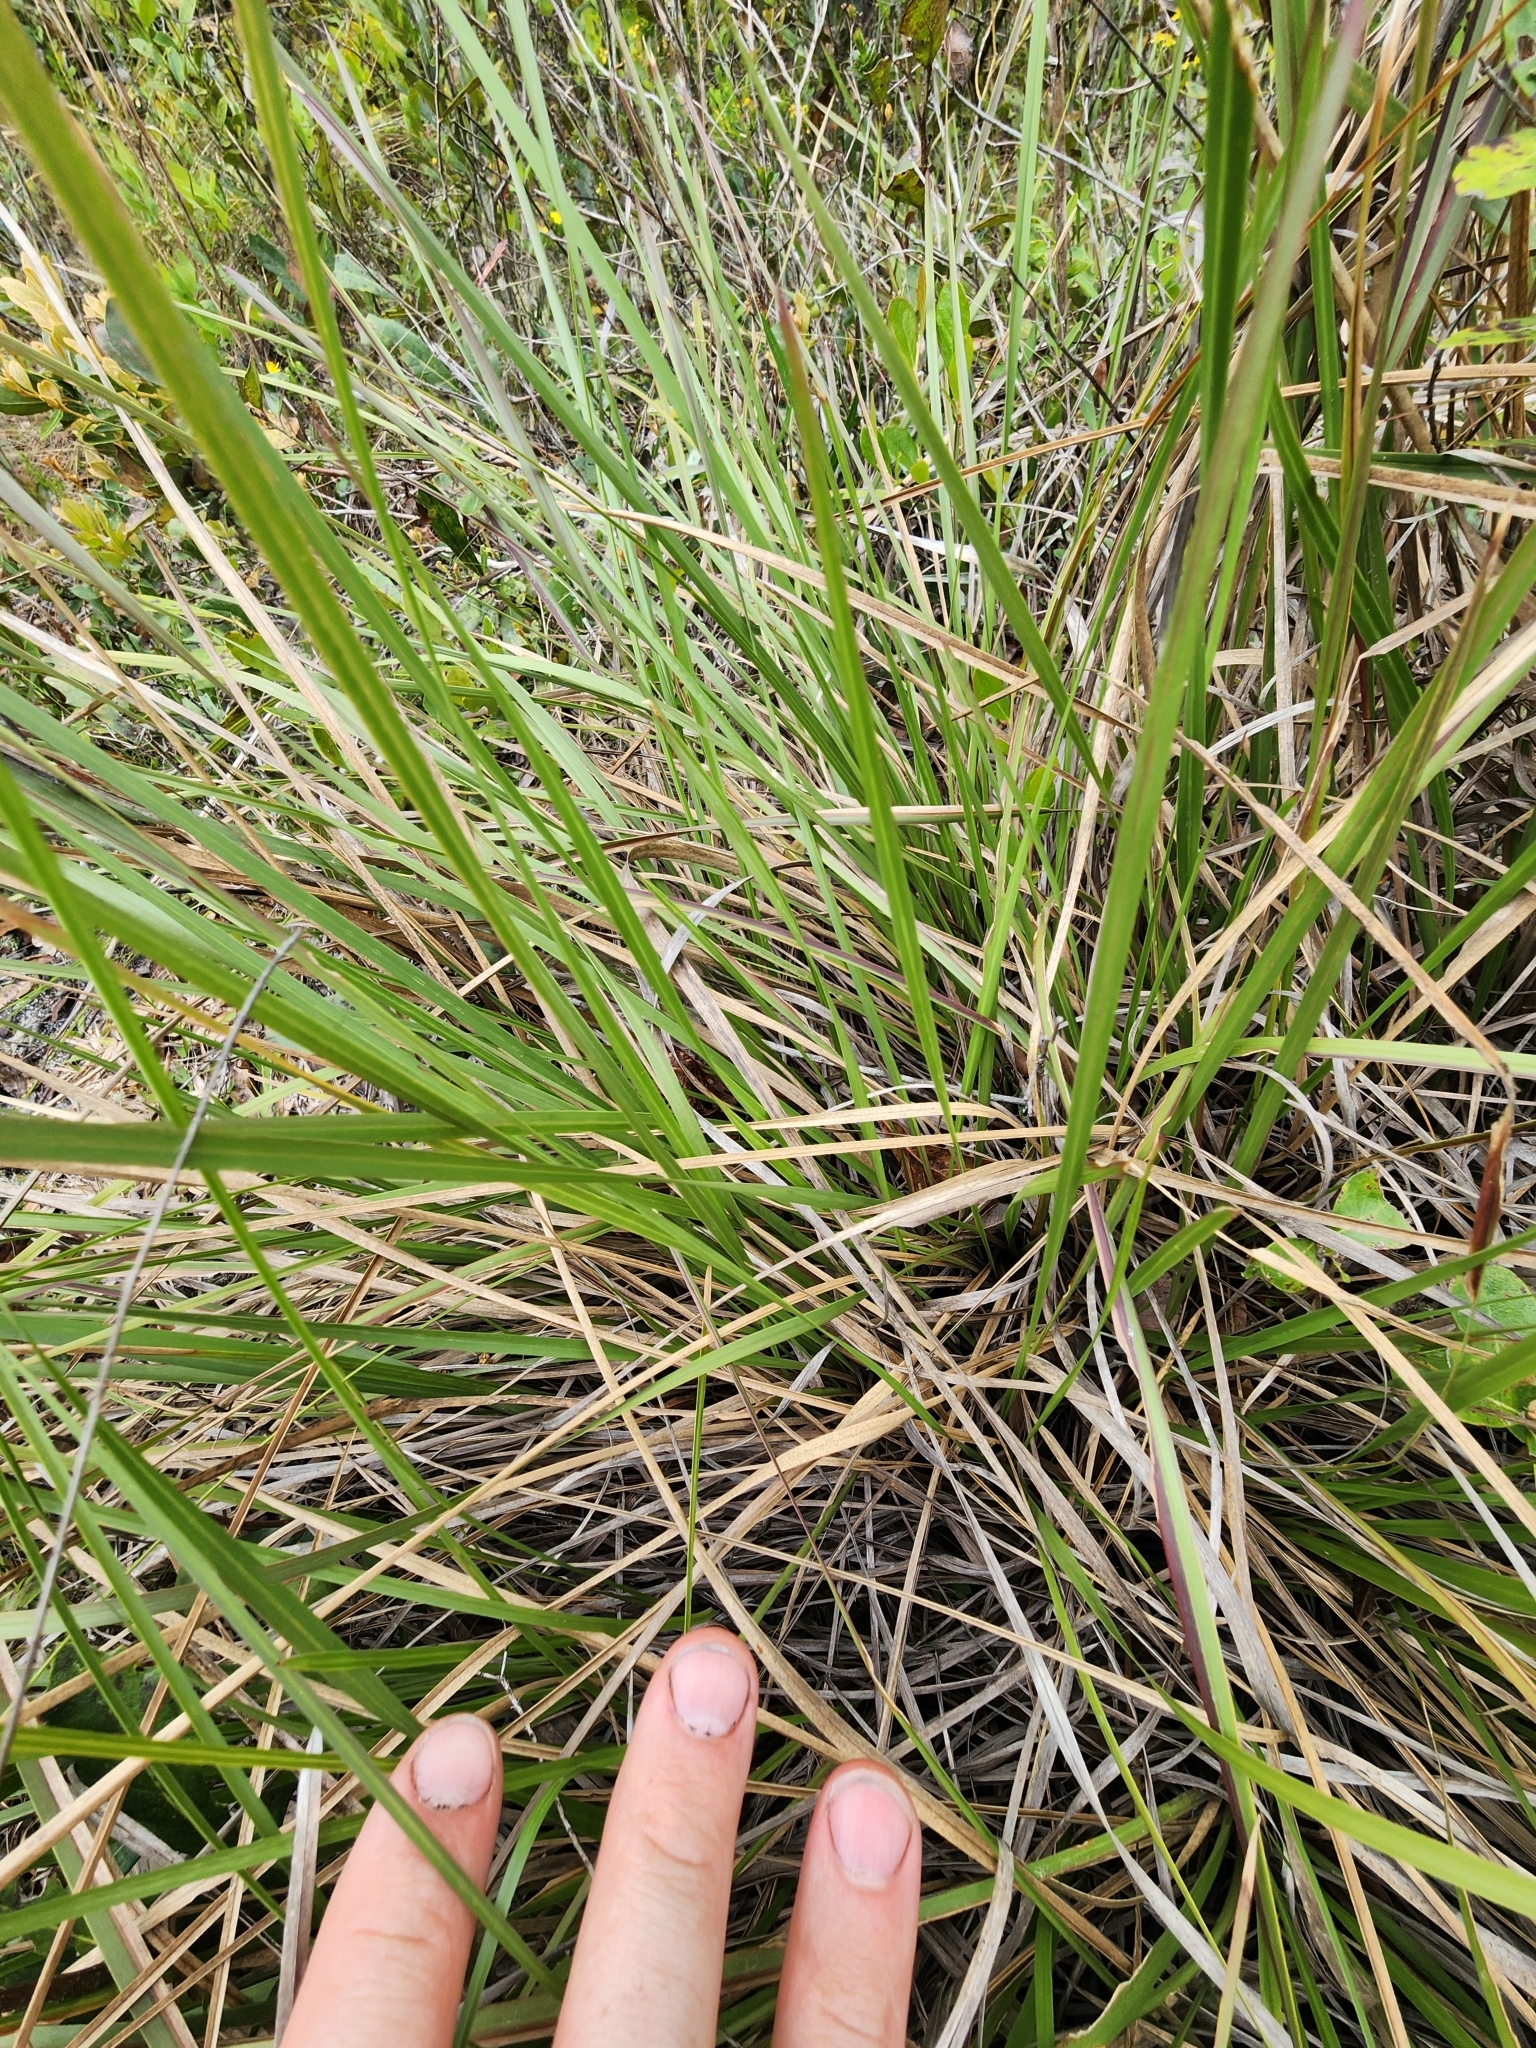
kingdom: Plantae
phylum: Tracheophyta
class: Liliopsida
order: Poales
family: Poaceae
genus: Sporobolus
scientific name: Sporobolus floridanus
